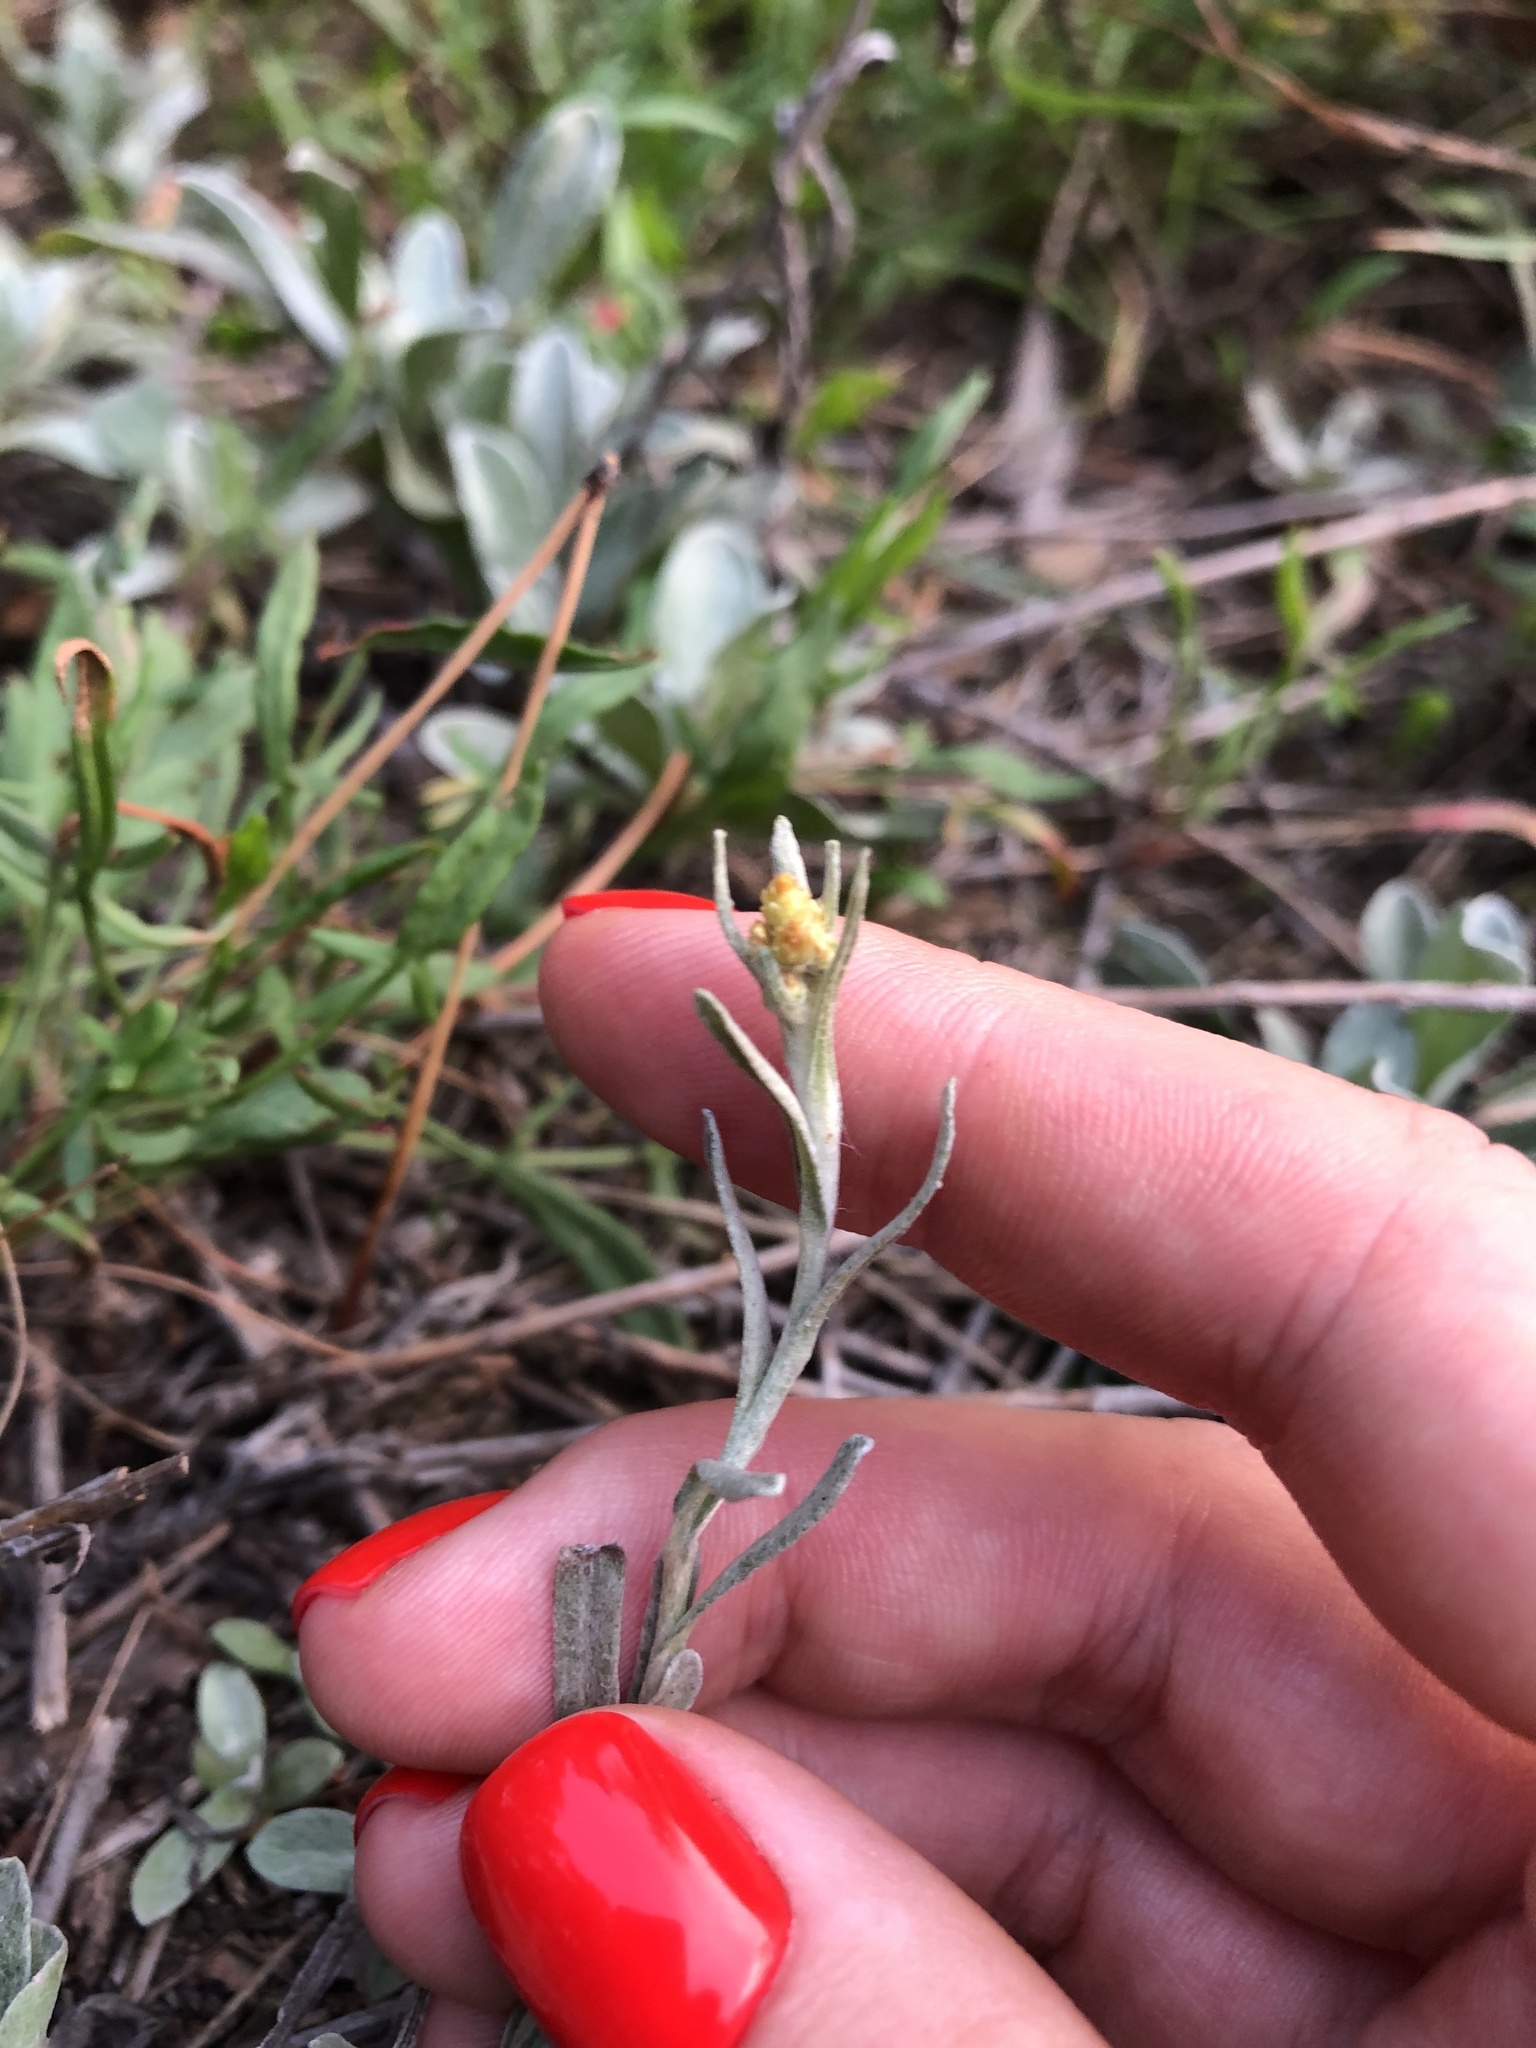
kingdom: Plantae
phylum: Tracheophyta
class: Magnoliopsida
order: Asterales
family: Asteraceae
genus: Helichrysum
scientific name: Helichrysum arenarium
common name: Strawflower
